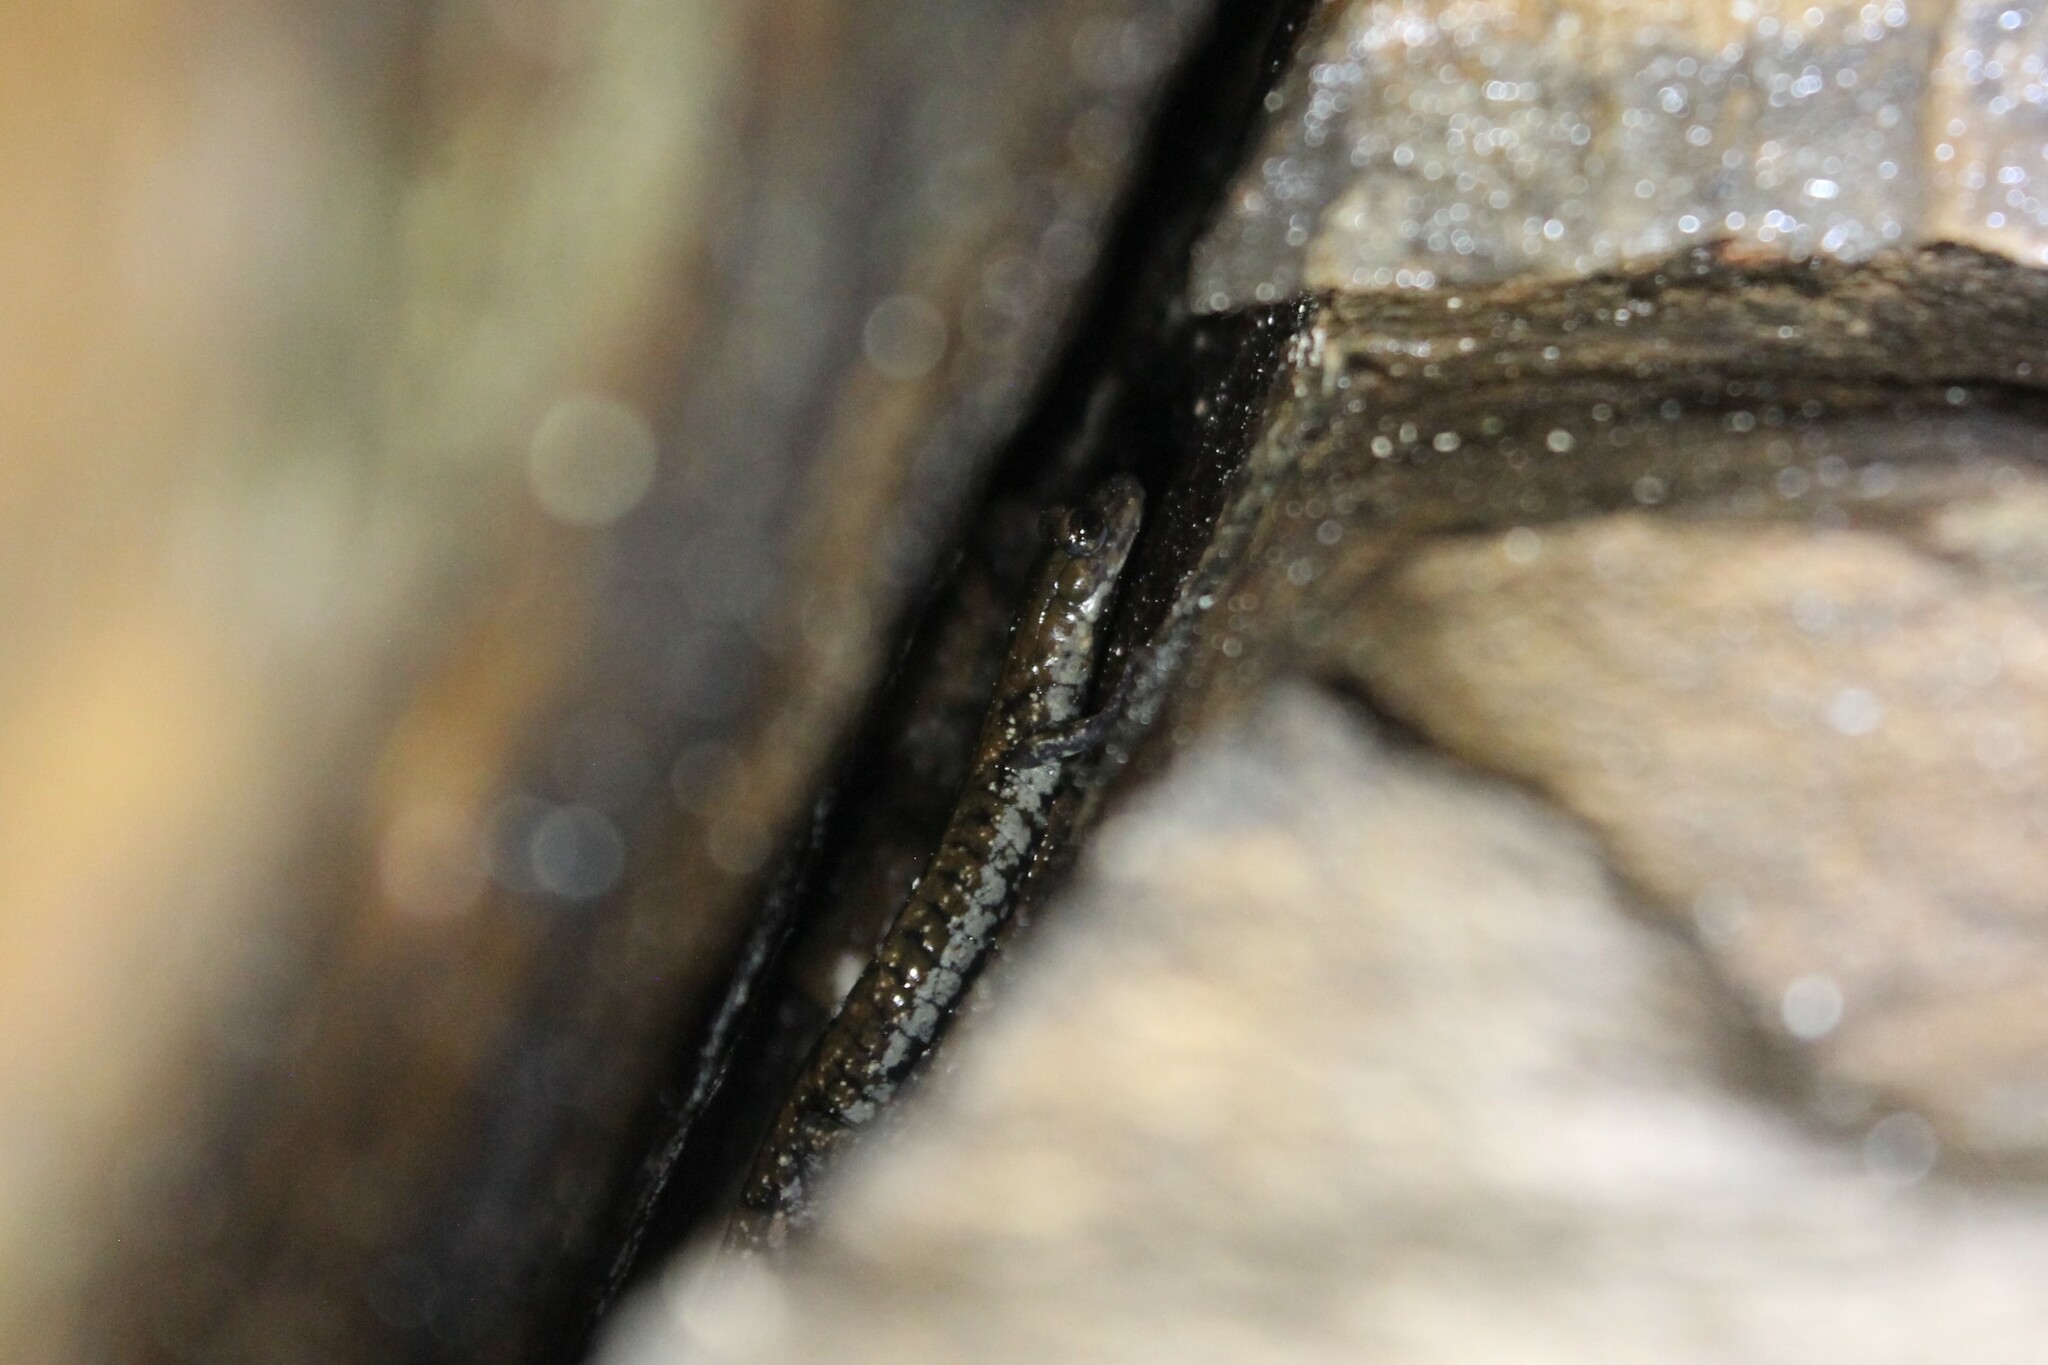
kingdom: Animalia
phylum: Chordata
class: Amphibia
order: Caudata
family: Plethodontidae
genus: Plethodon
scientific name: Plethodon petraeus
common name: Pigeon mountain salamander
